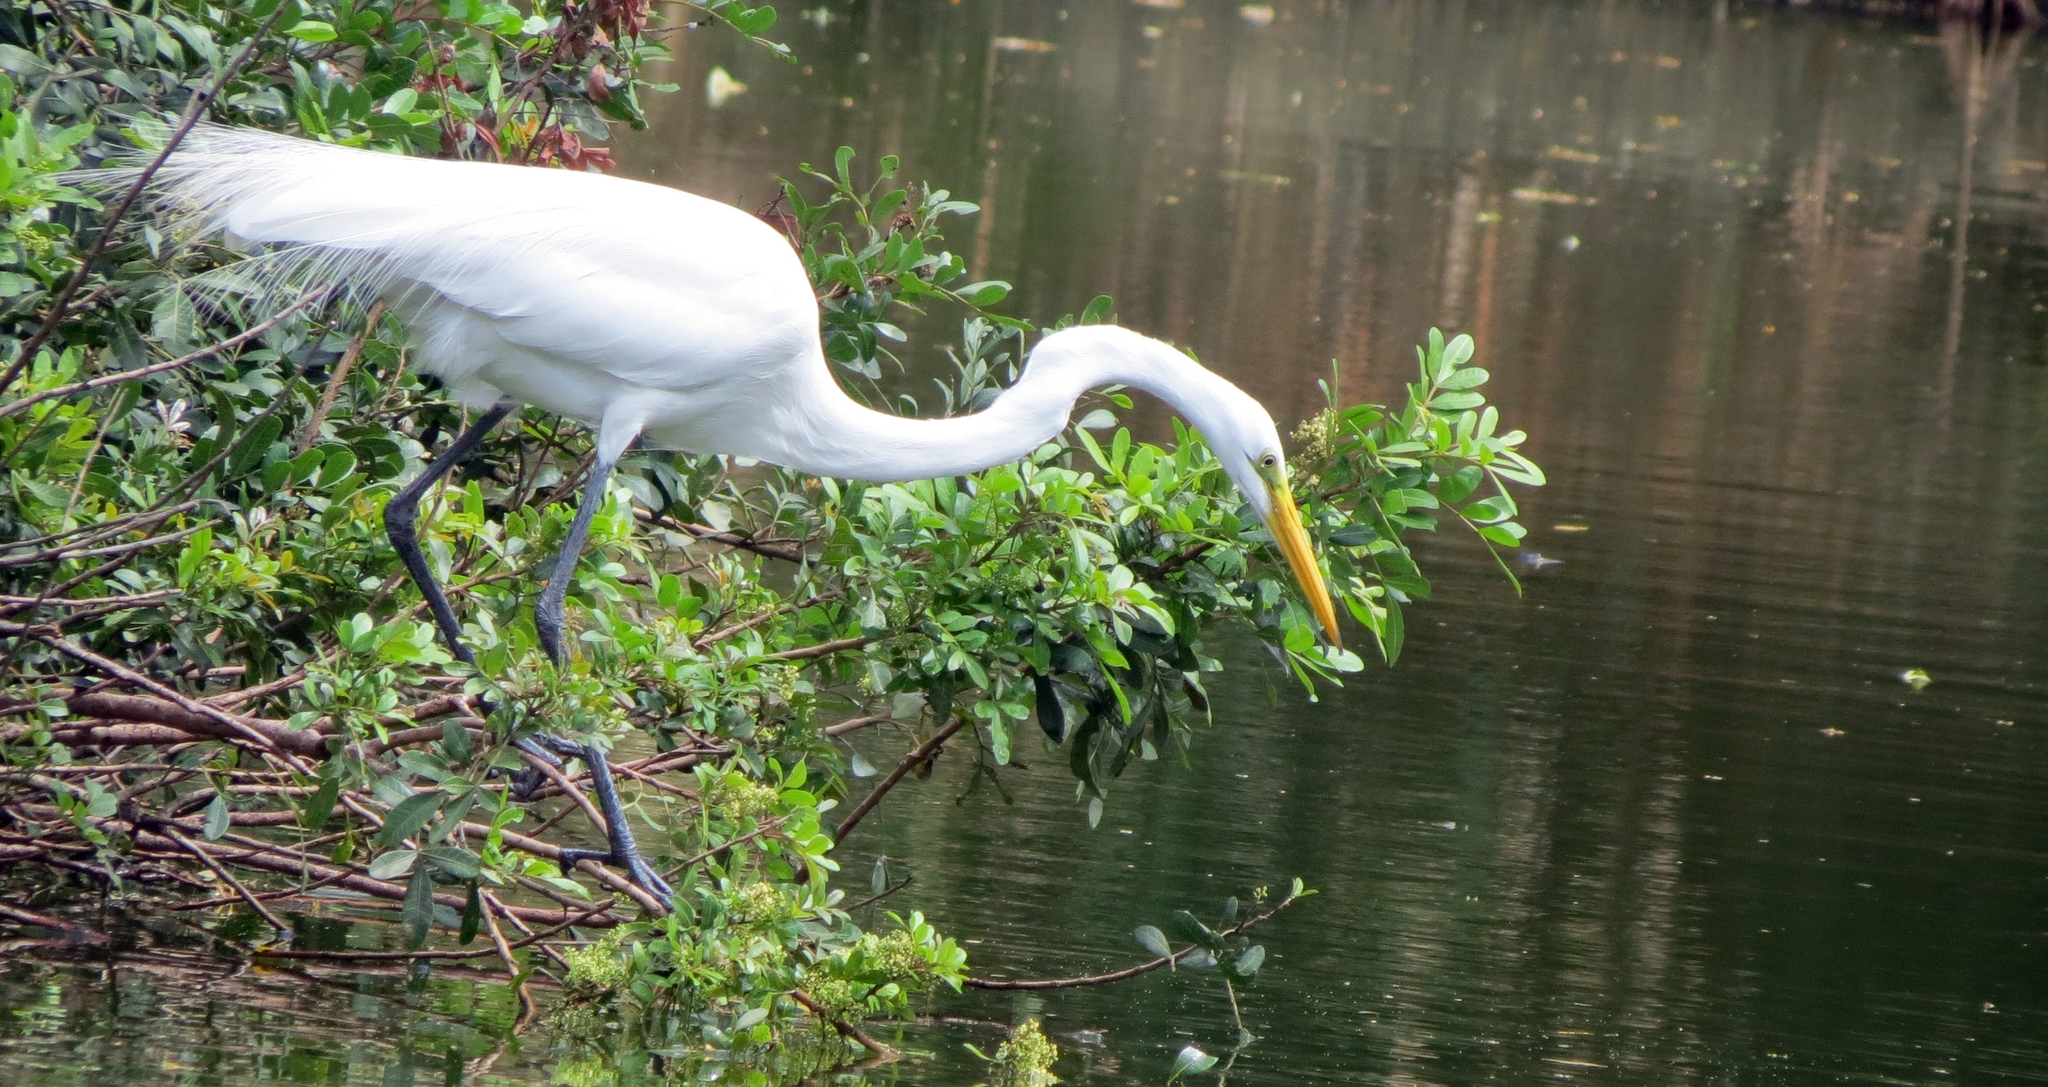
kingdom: Animalia
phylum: Chordata
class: Aves
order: Pelecaniformes
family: Ardeidae
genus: Ardea
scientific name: Ardea alba
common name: Great egret
